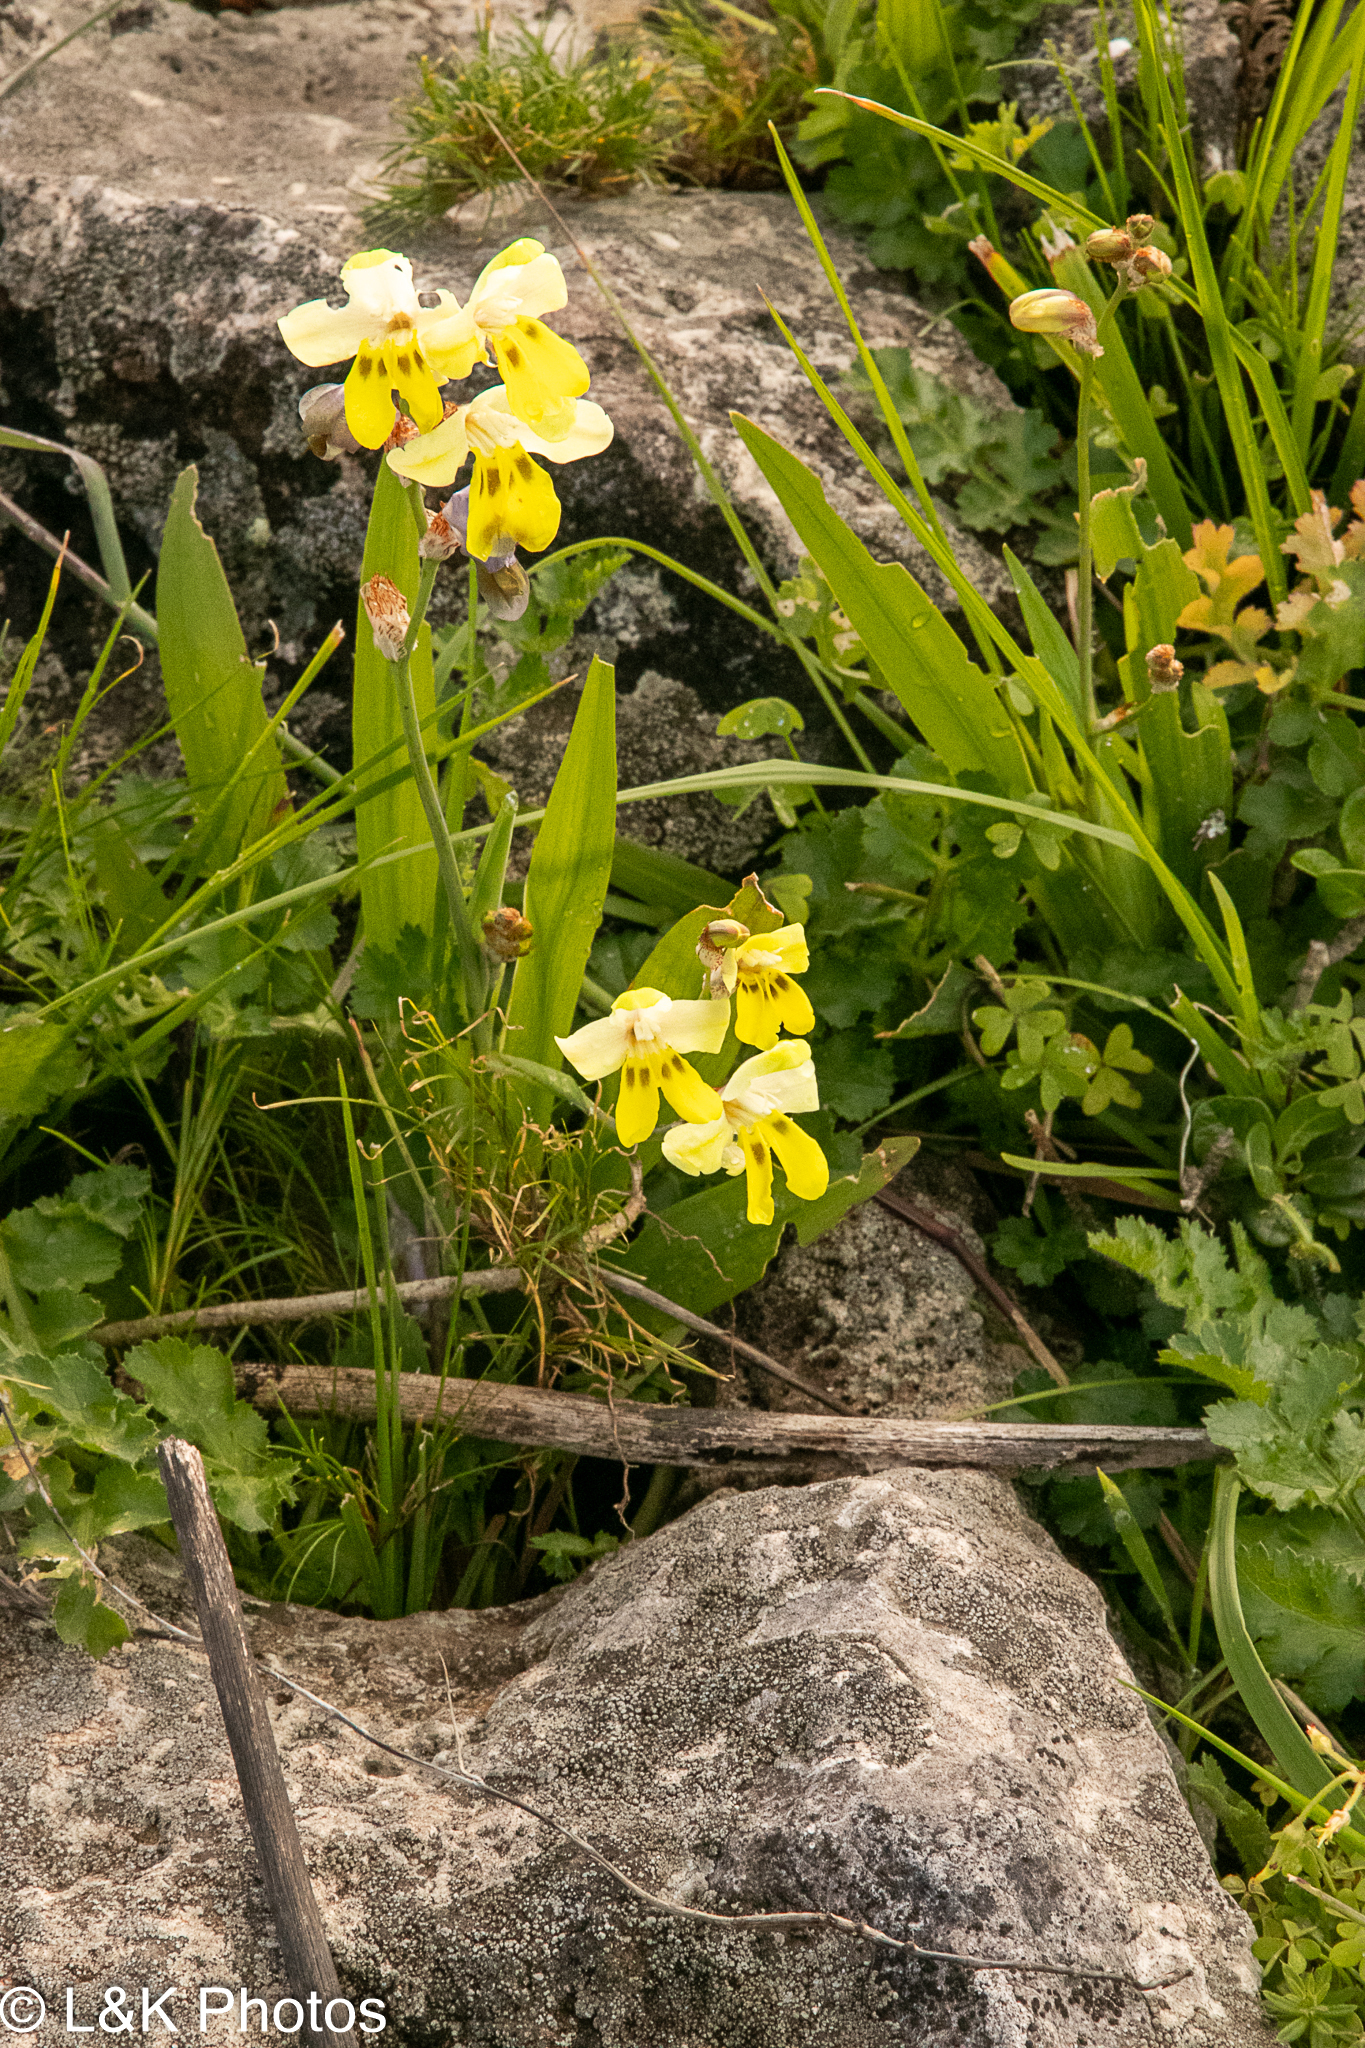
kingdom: Plantae
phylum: Tracheophyta
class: Liliopsida
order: Asparagales
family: Iridaceae
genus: Sparaxis
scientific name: Sparaxis
